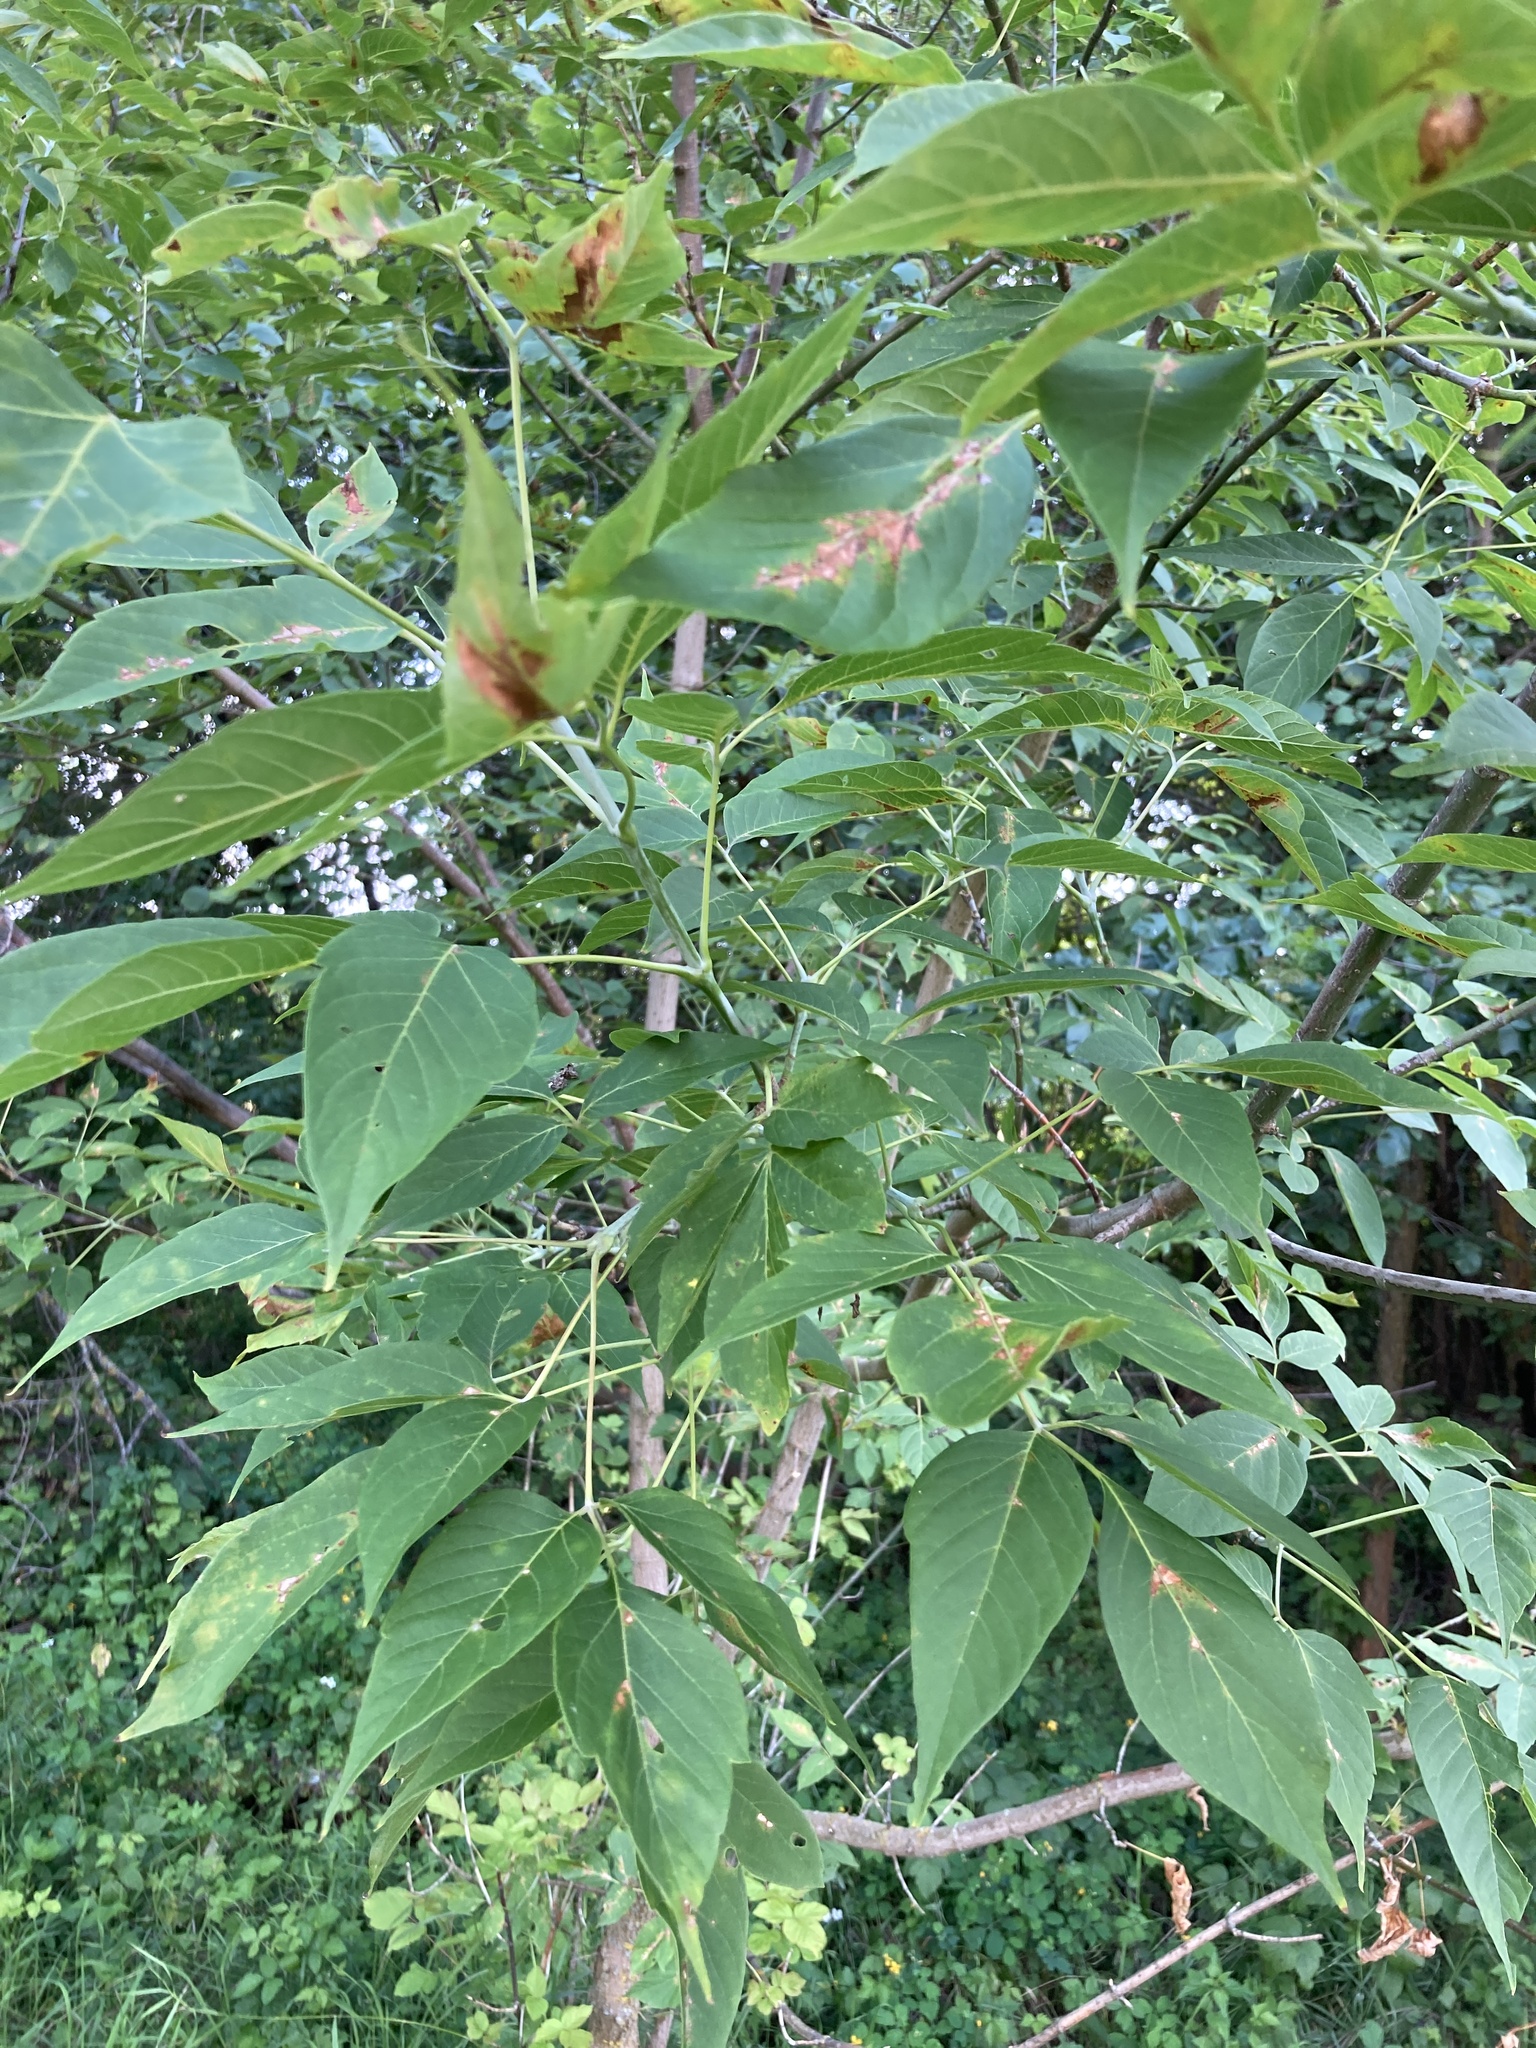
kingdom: Plantae
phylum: Tracheophyta
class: Magnoliopsida
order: Sapindales
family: Sapindaceae
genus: Acer
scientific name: Acer negundo
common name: Ashleaf maple
